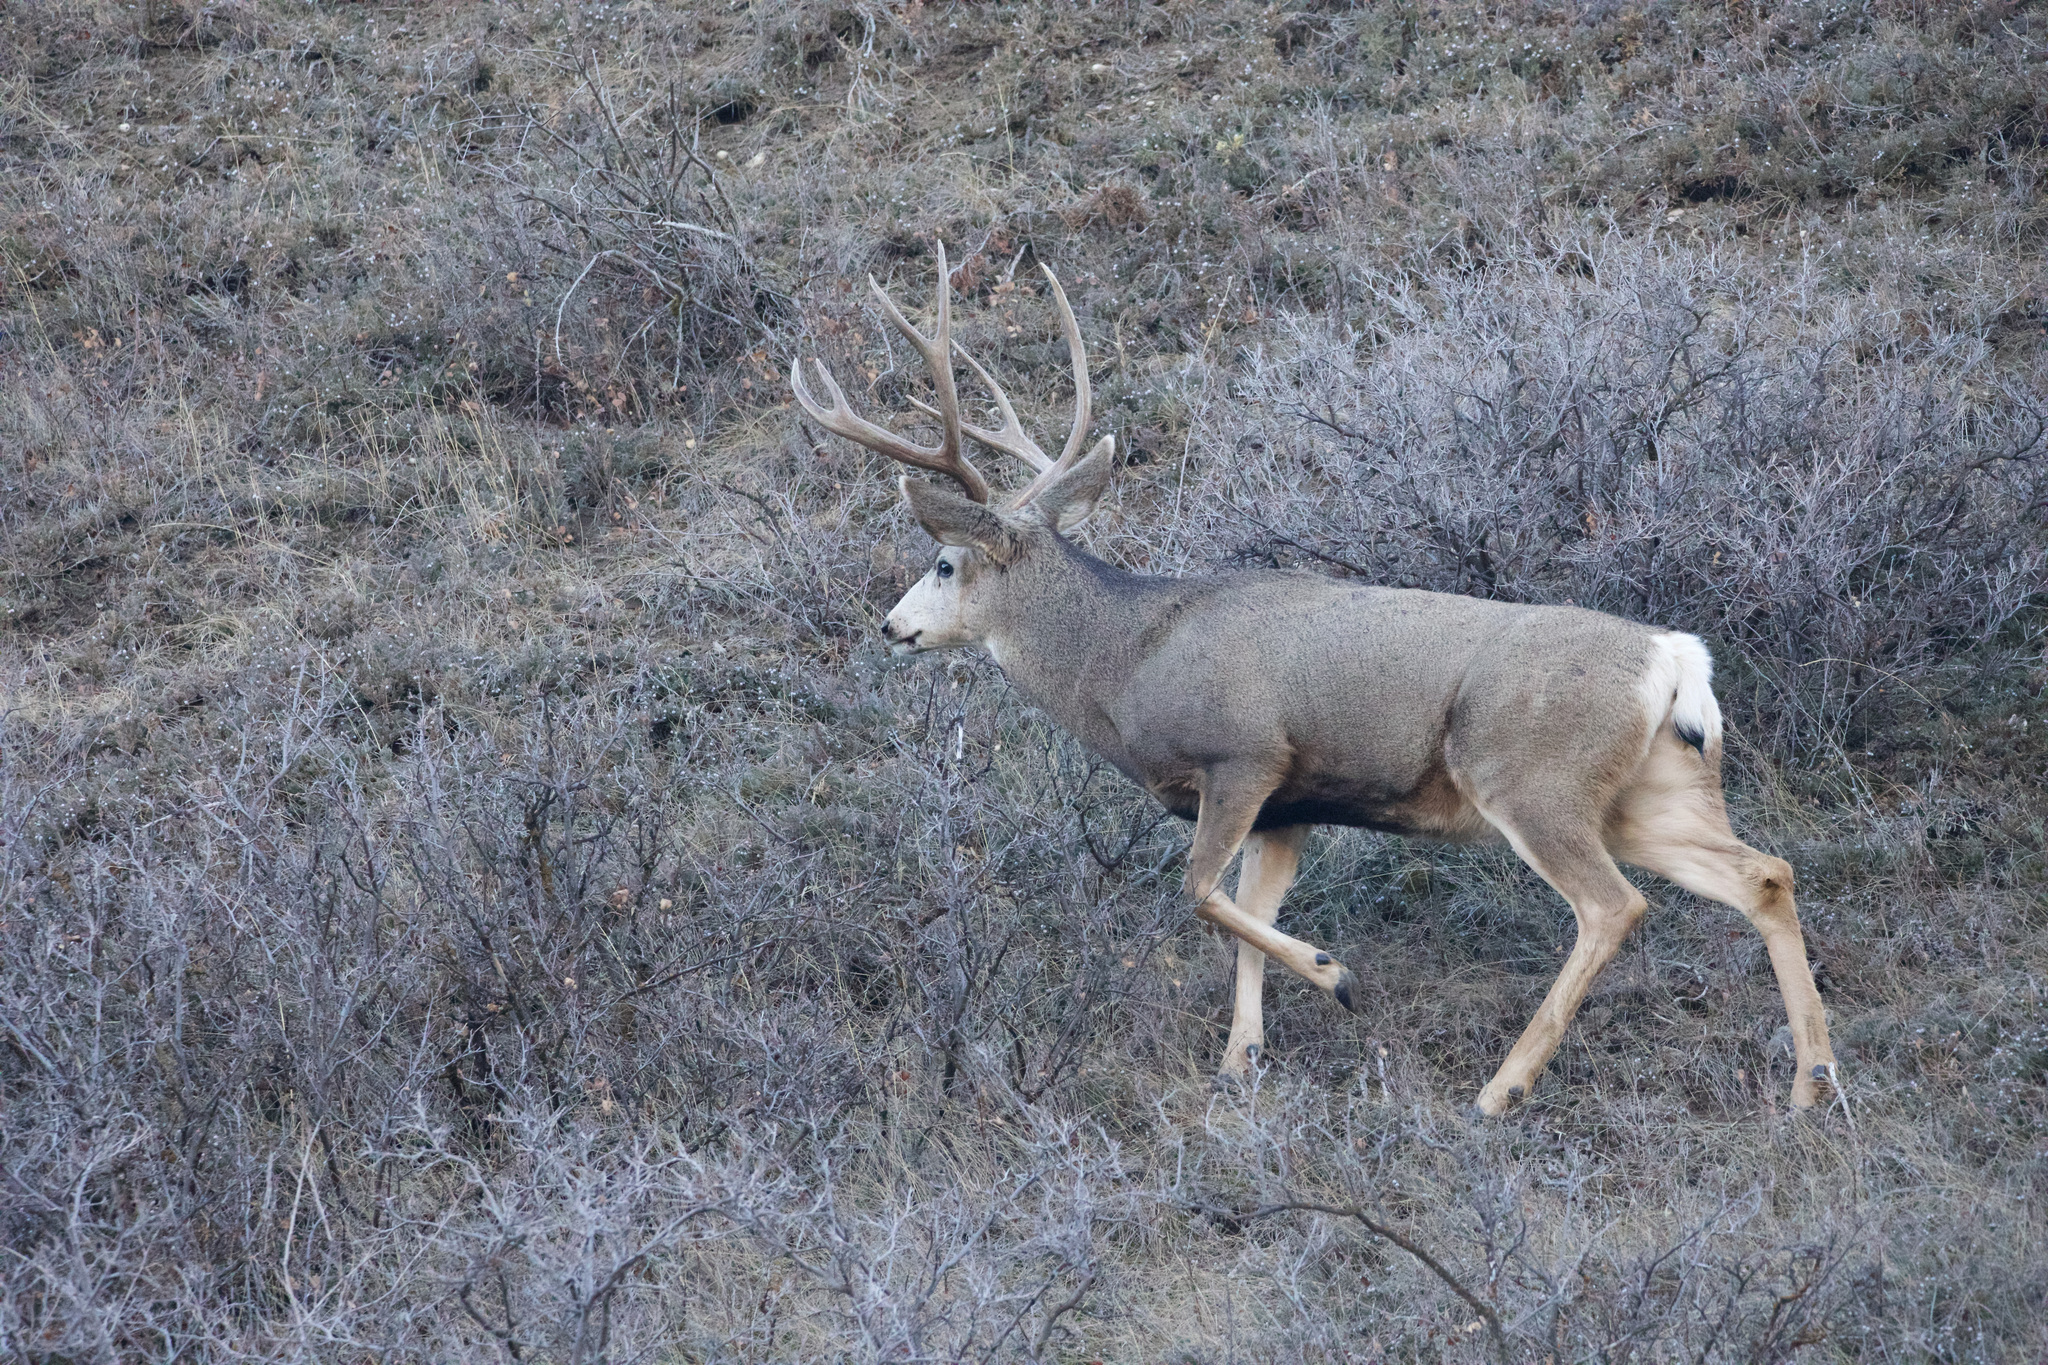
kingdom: Animalia
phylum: Chordata
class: Mammalia
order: Artiodactyla
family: Cervidae
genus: Odocoileus
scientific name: Odocoileus hemionus
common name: Mule deer
